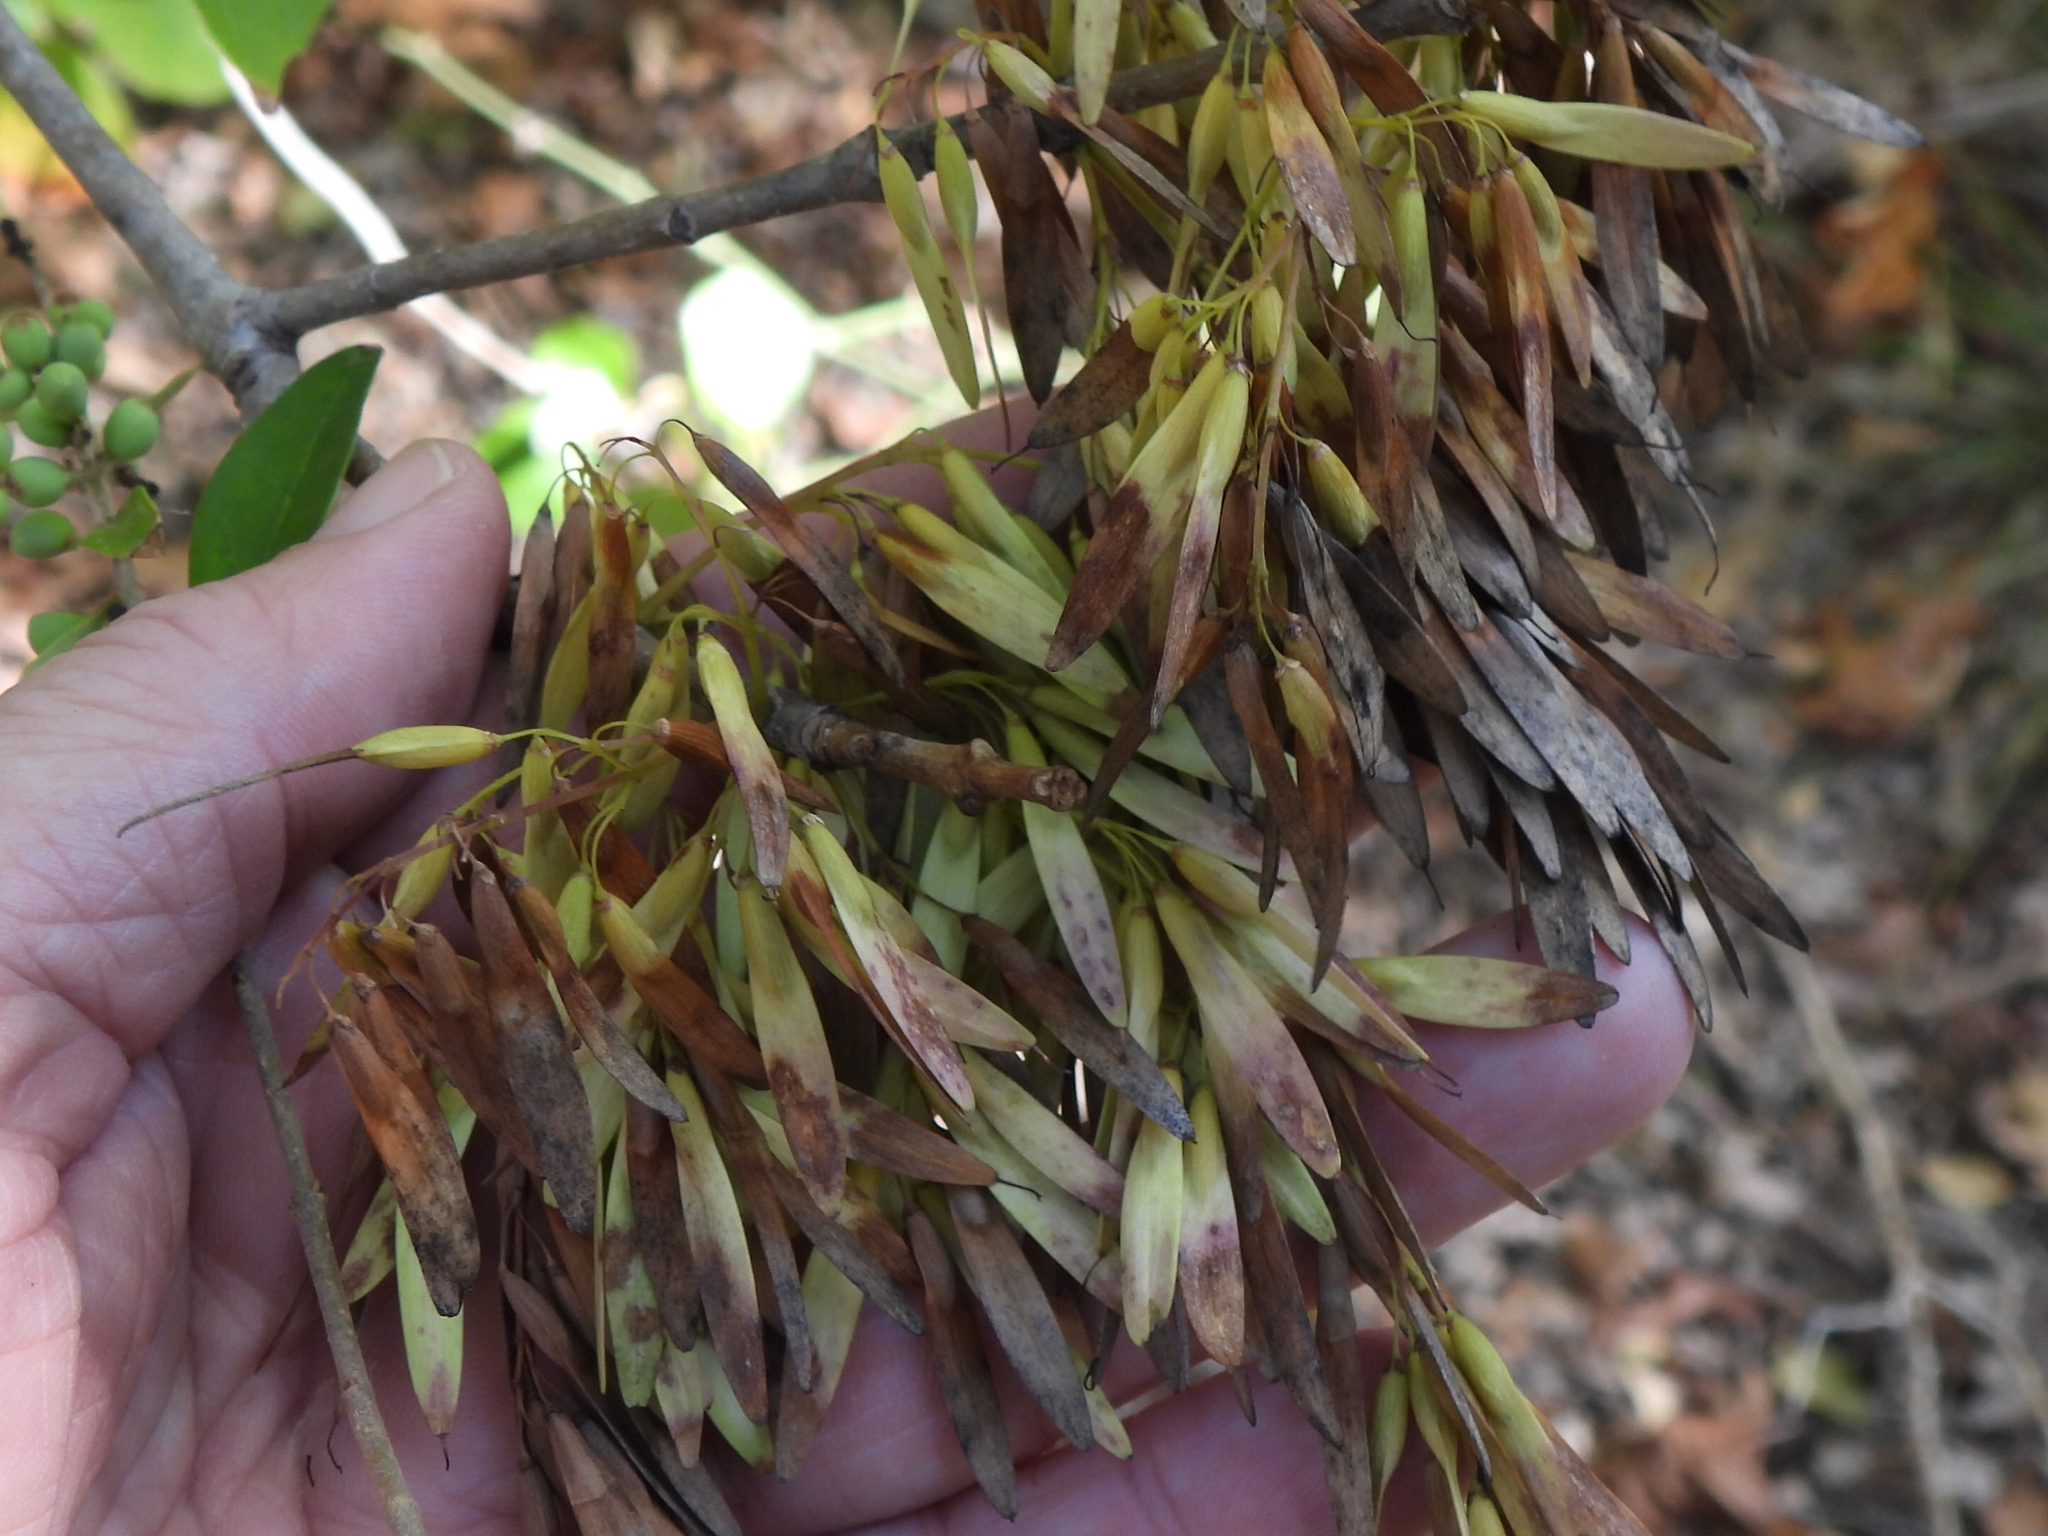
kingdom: Plantae
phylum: Tracheophyta
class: Magnoliopsida
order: Lamiales
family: Oleaceae
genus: Fraxinus
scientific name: Fraxinus albicans
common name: Texas ash
